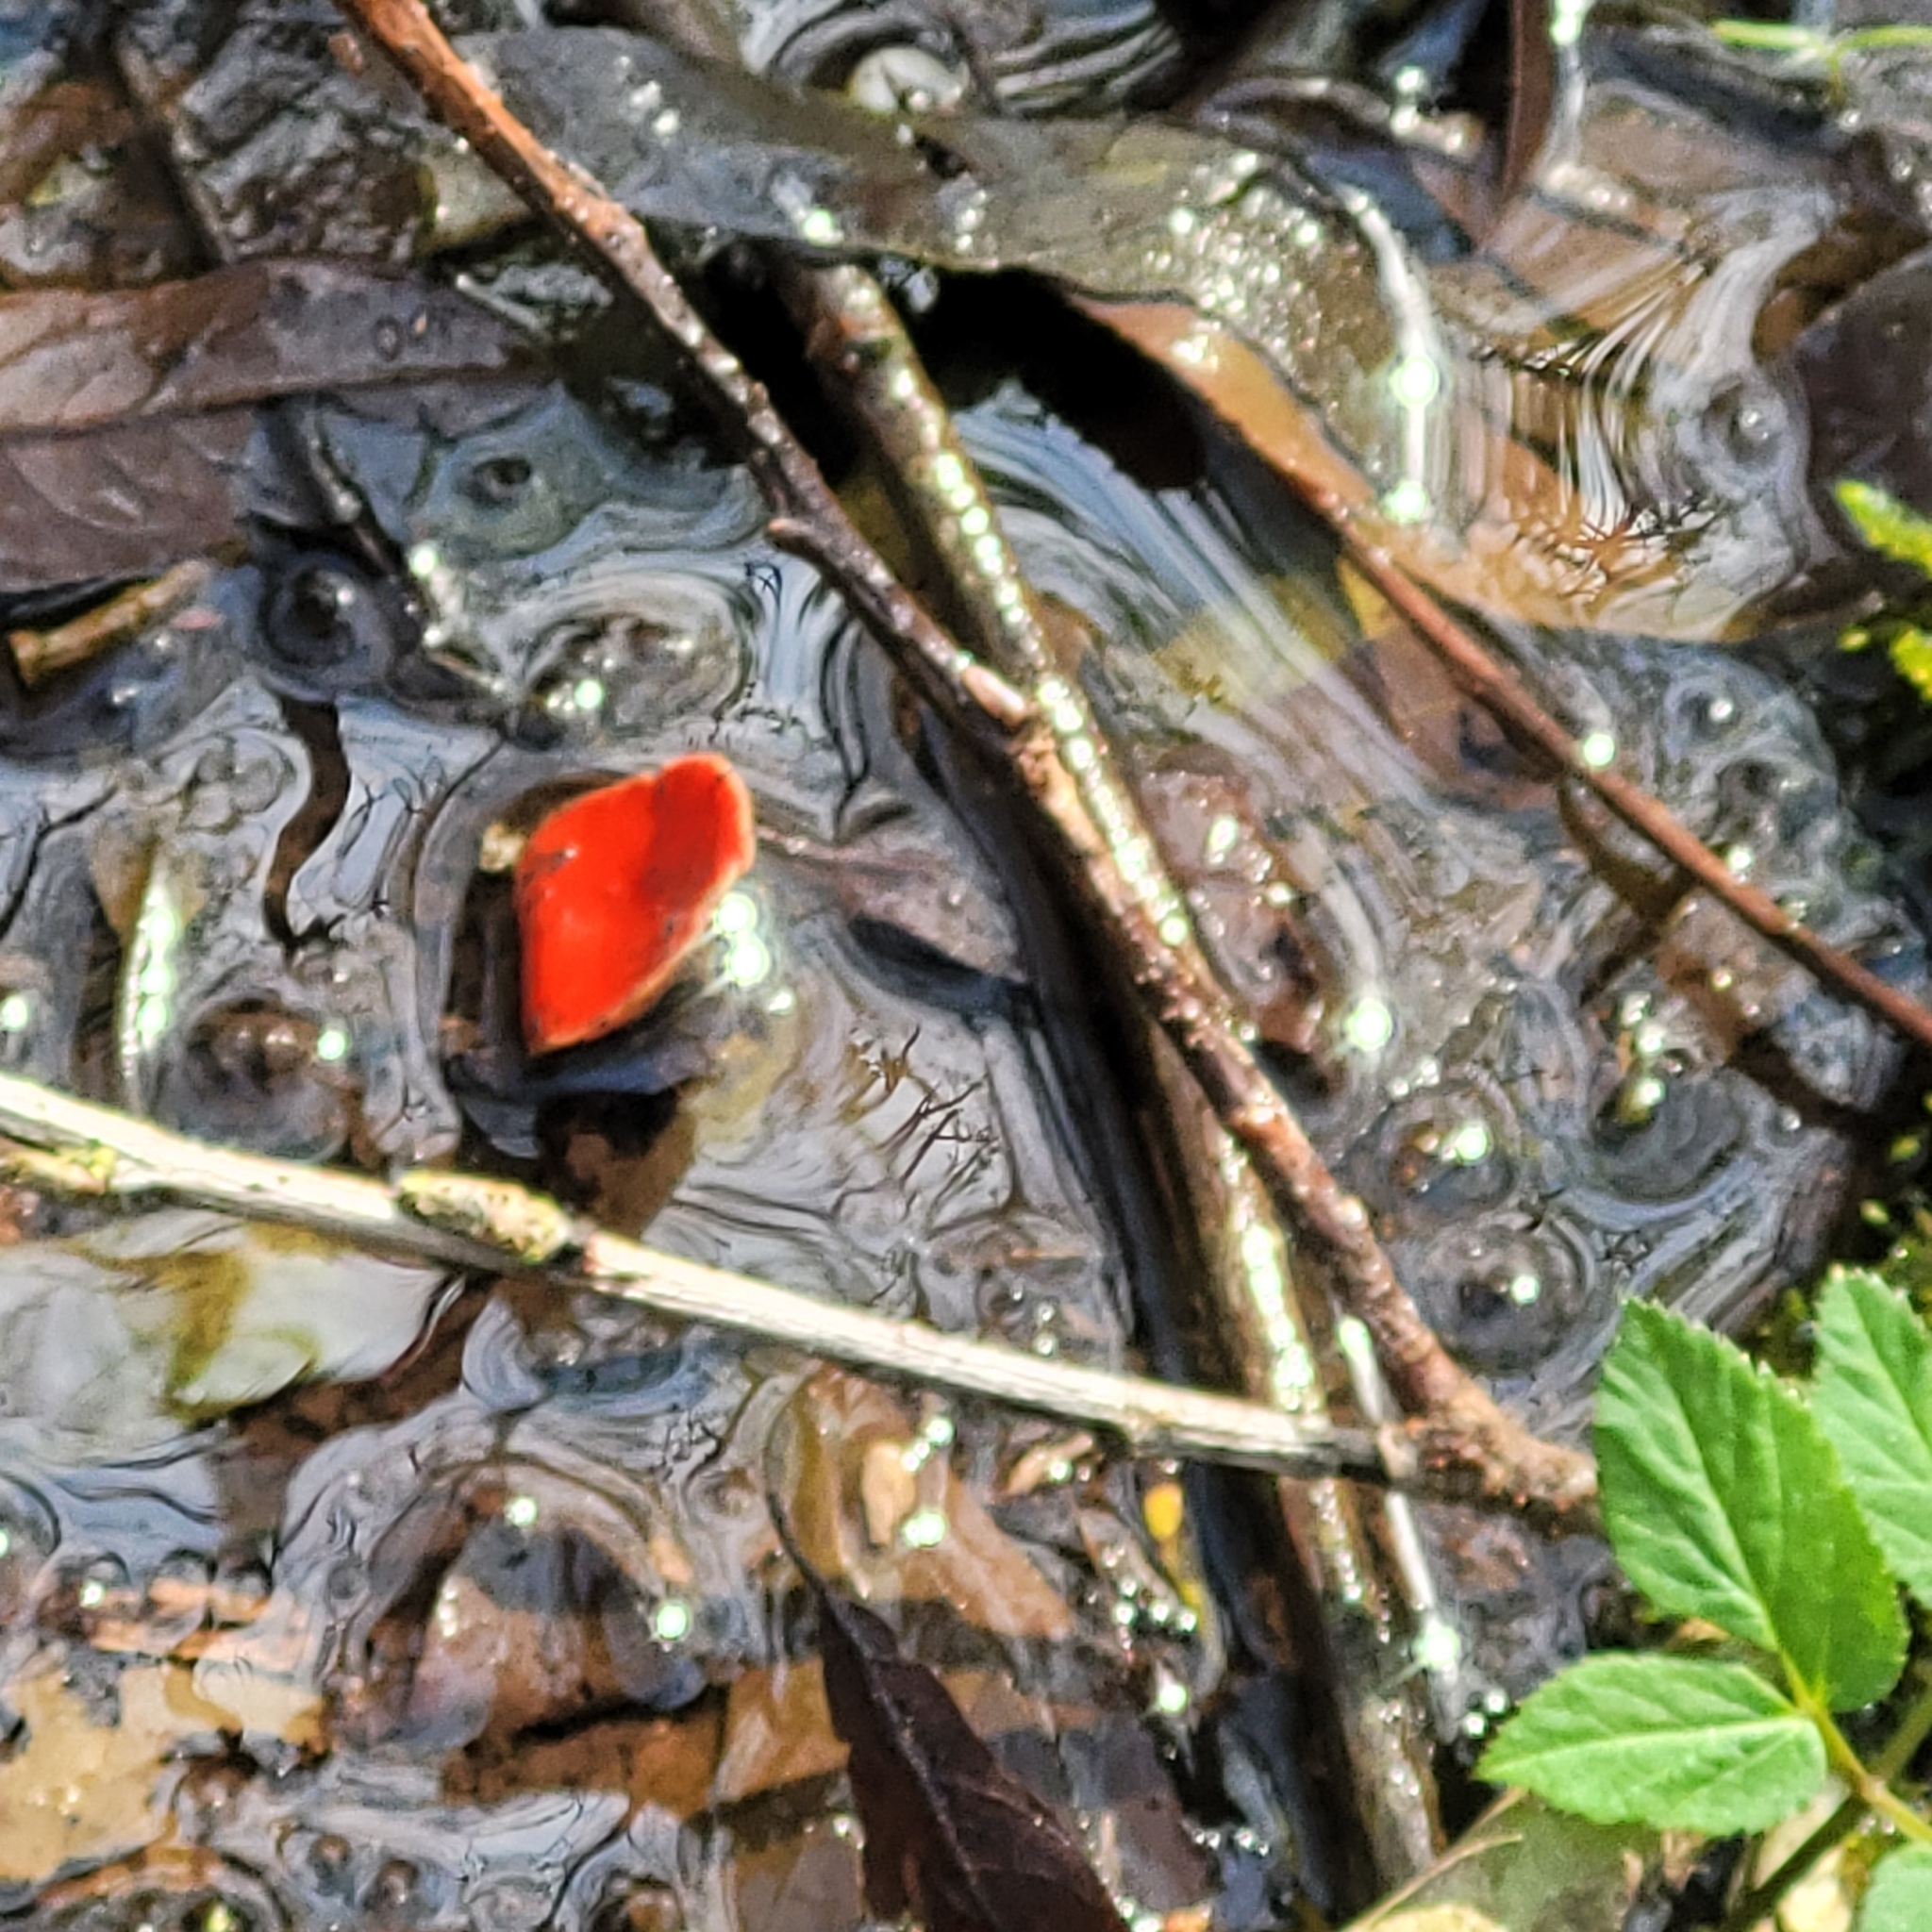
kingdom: Fungi
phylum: Ascomycota
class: Pezizomycetes
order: Pezizales
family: Sarcoscyphaceae
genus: Sarcoscypha
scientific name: Sarcoscypha
